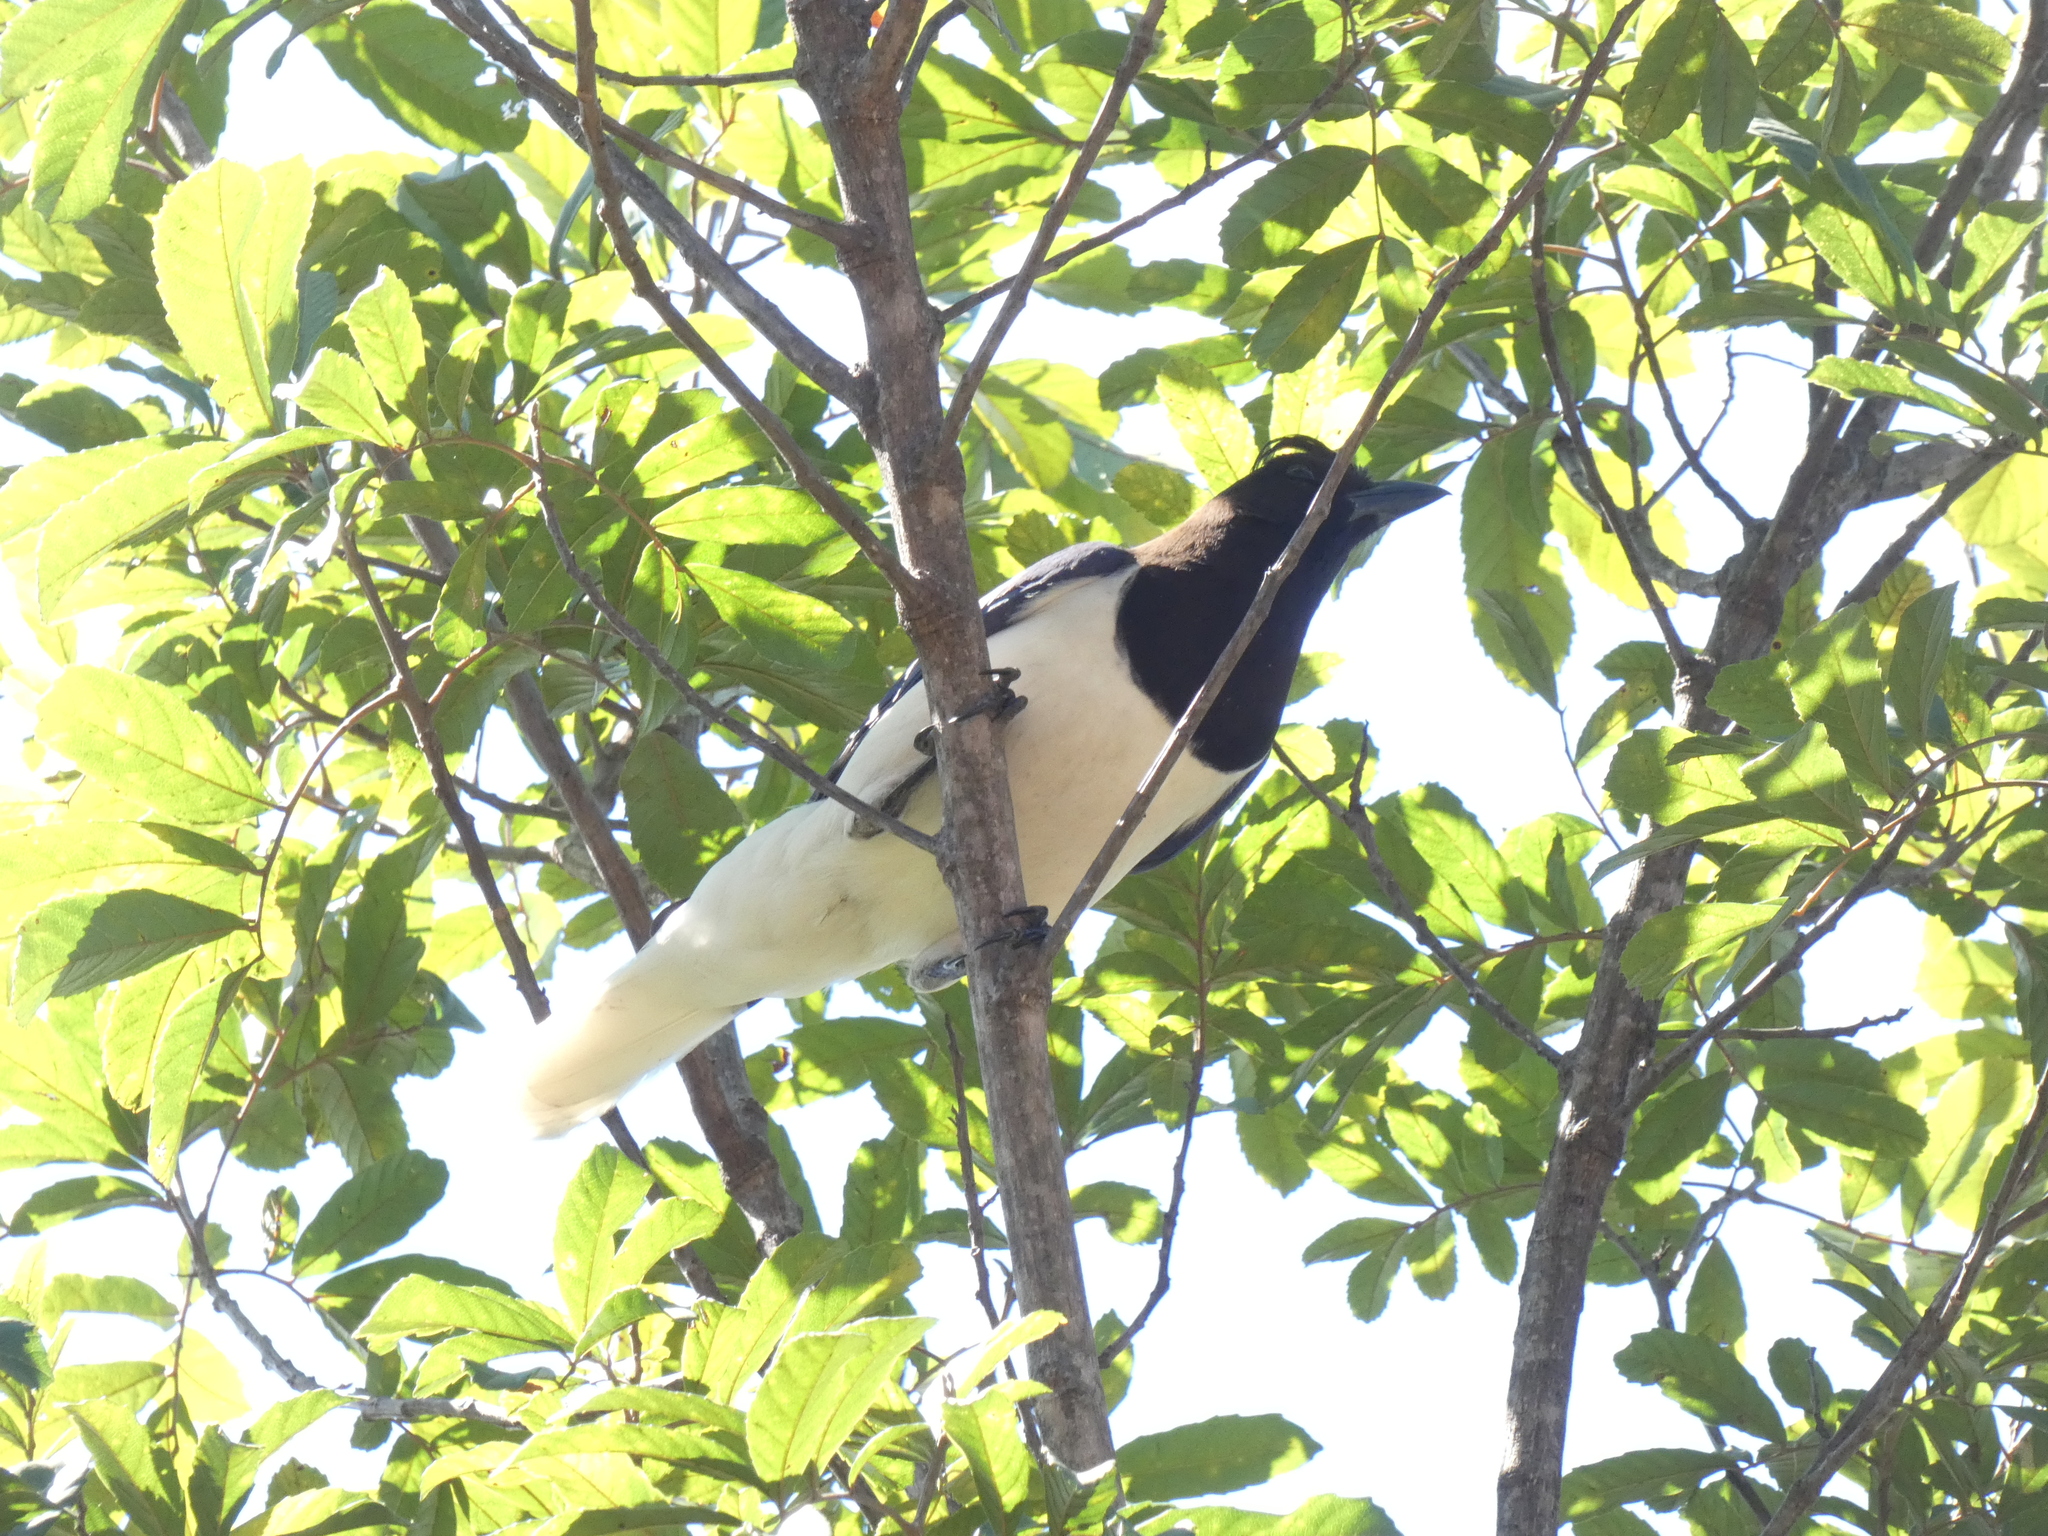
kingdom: Animalia
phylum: Chordata
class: Aves
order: Passeriformes
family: Corvidae
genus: Cyanocorax
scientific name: Cyanocorax cristatellus
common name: Curl-crested jay
